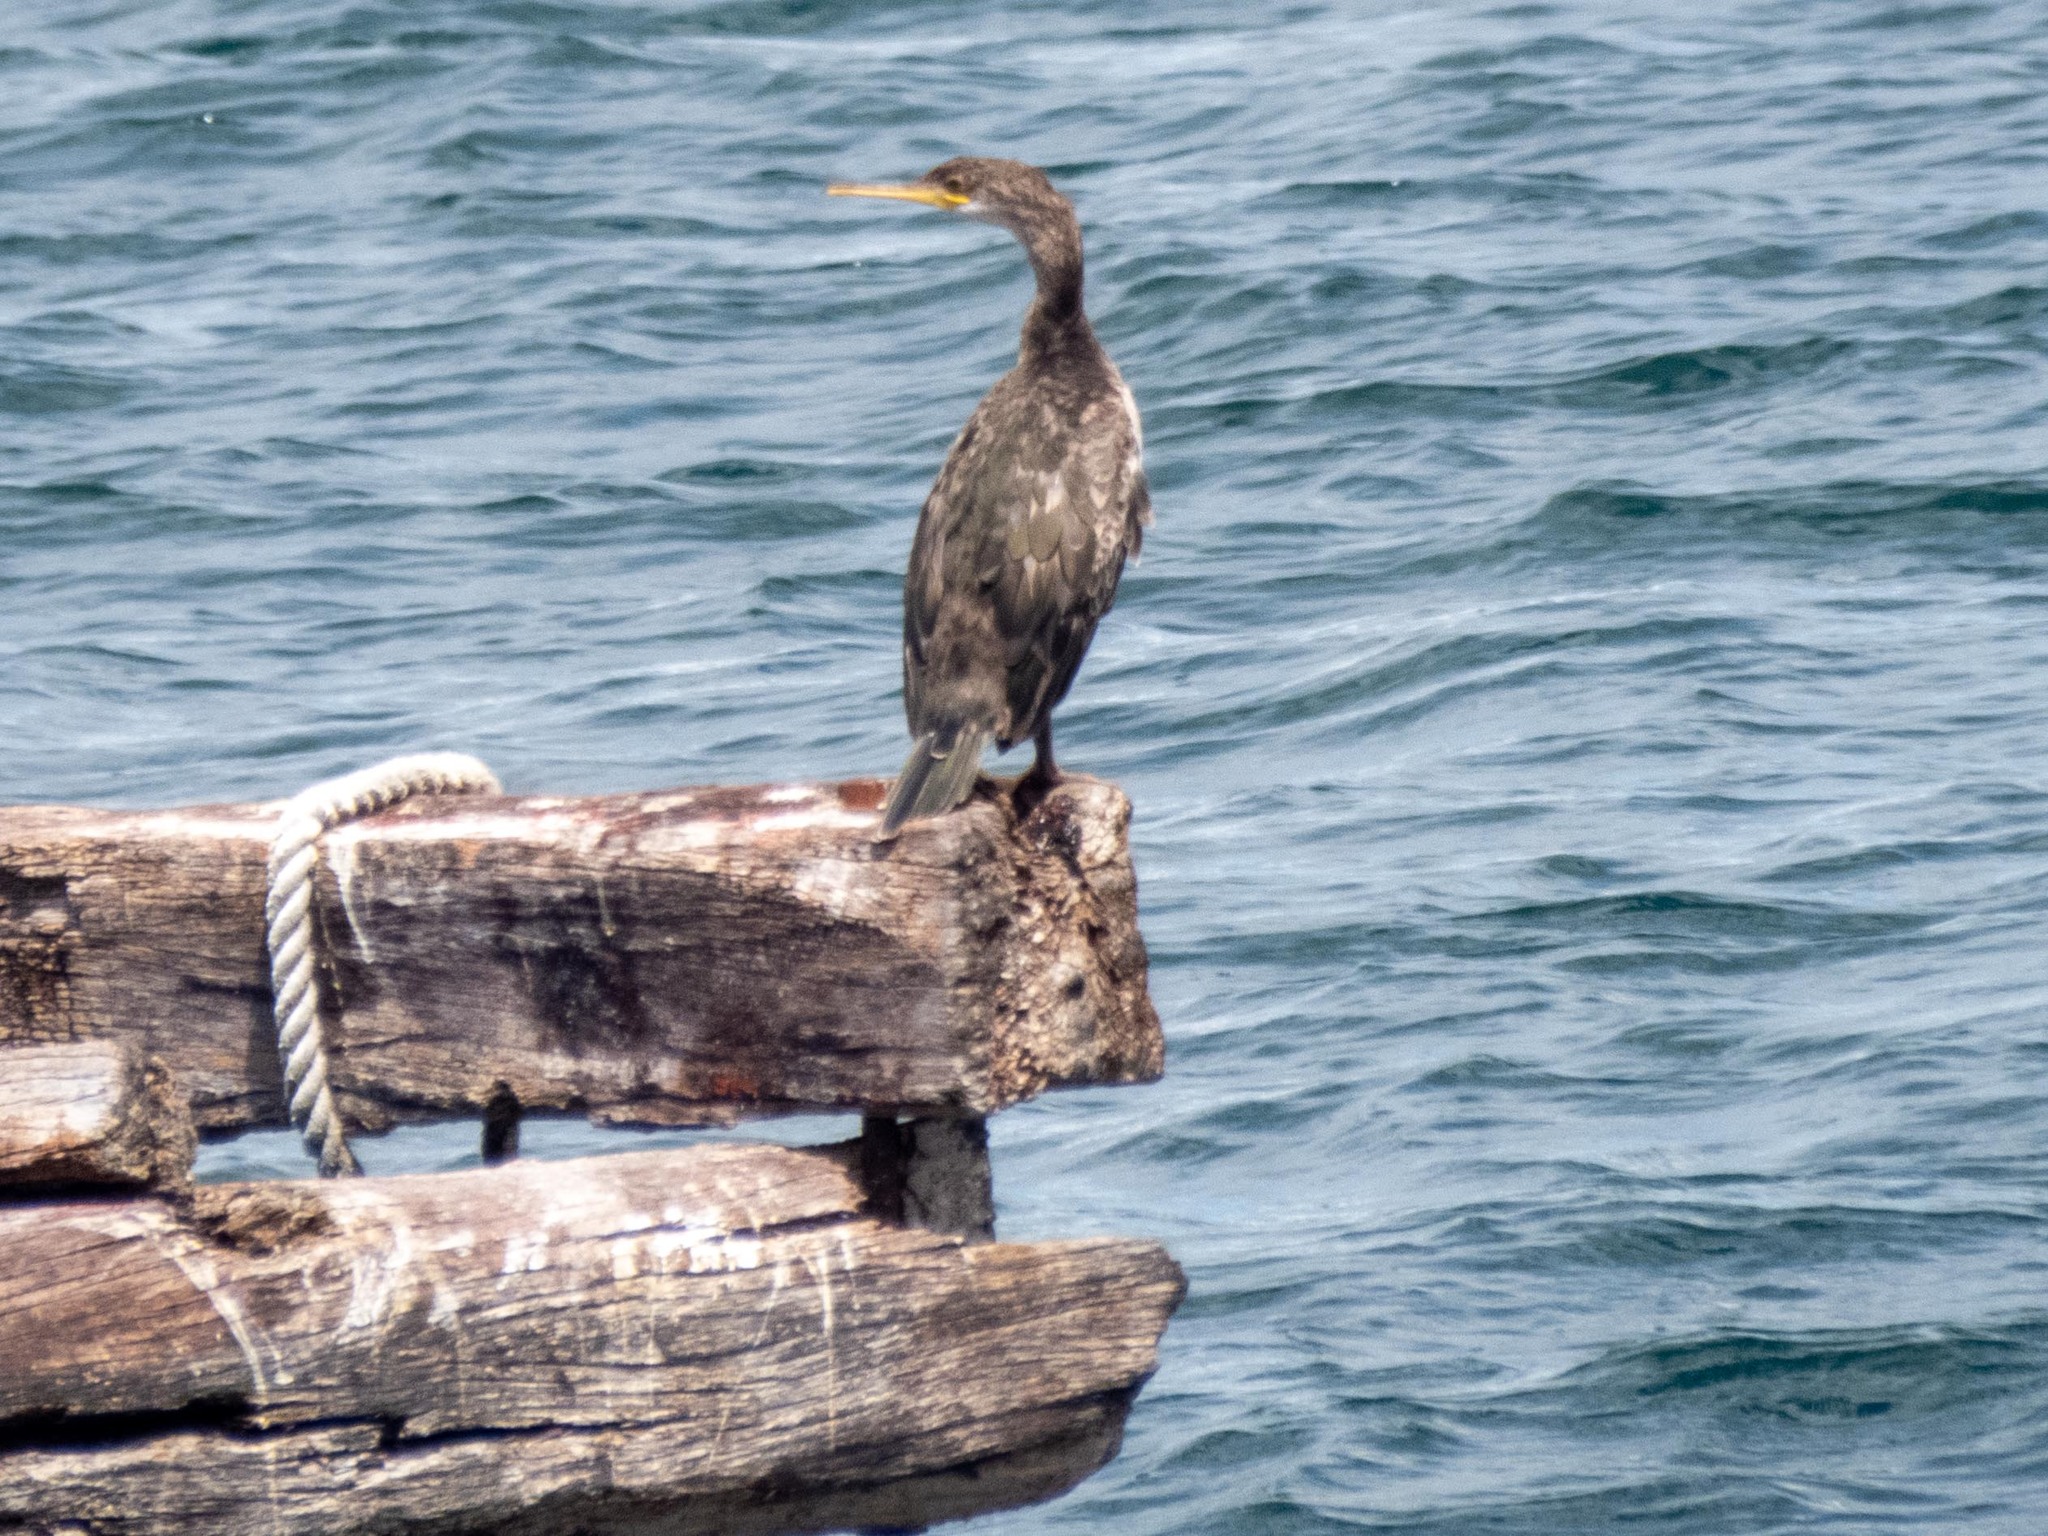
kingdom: Animalia
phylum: Chordata
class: Aves
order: Suliformes
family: Phalacrocoracidae
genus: Phalacrocorax
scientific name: Phalacrocorax aristotelis
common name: European shag
